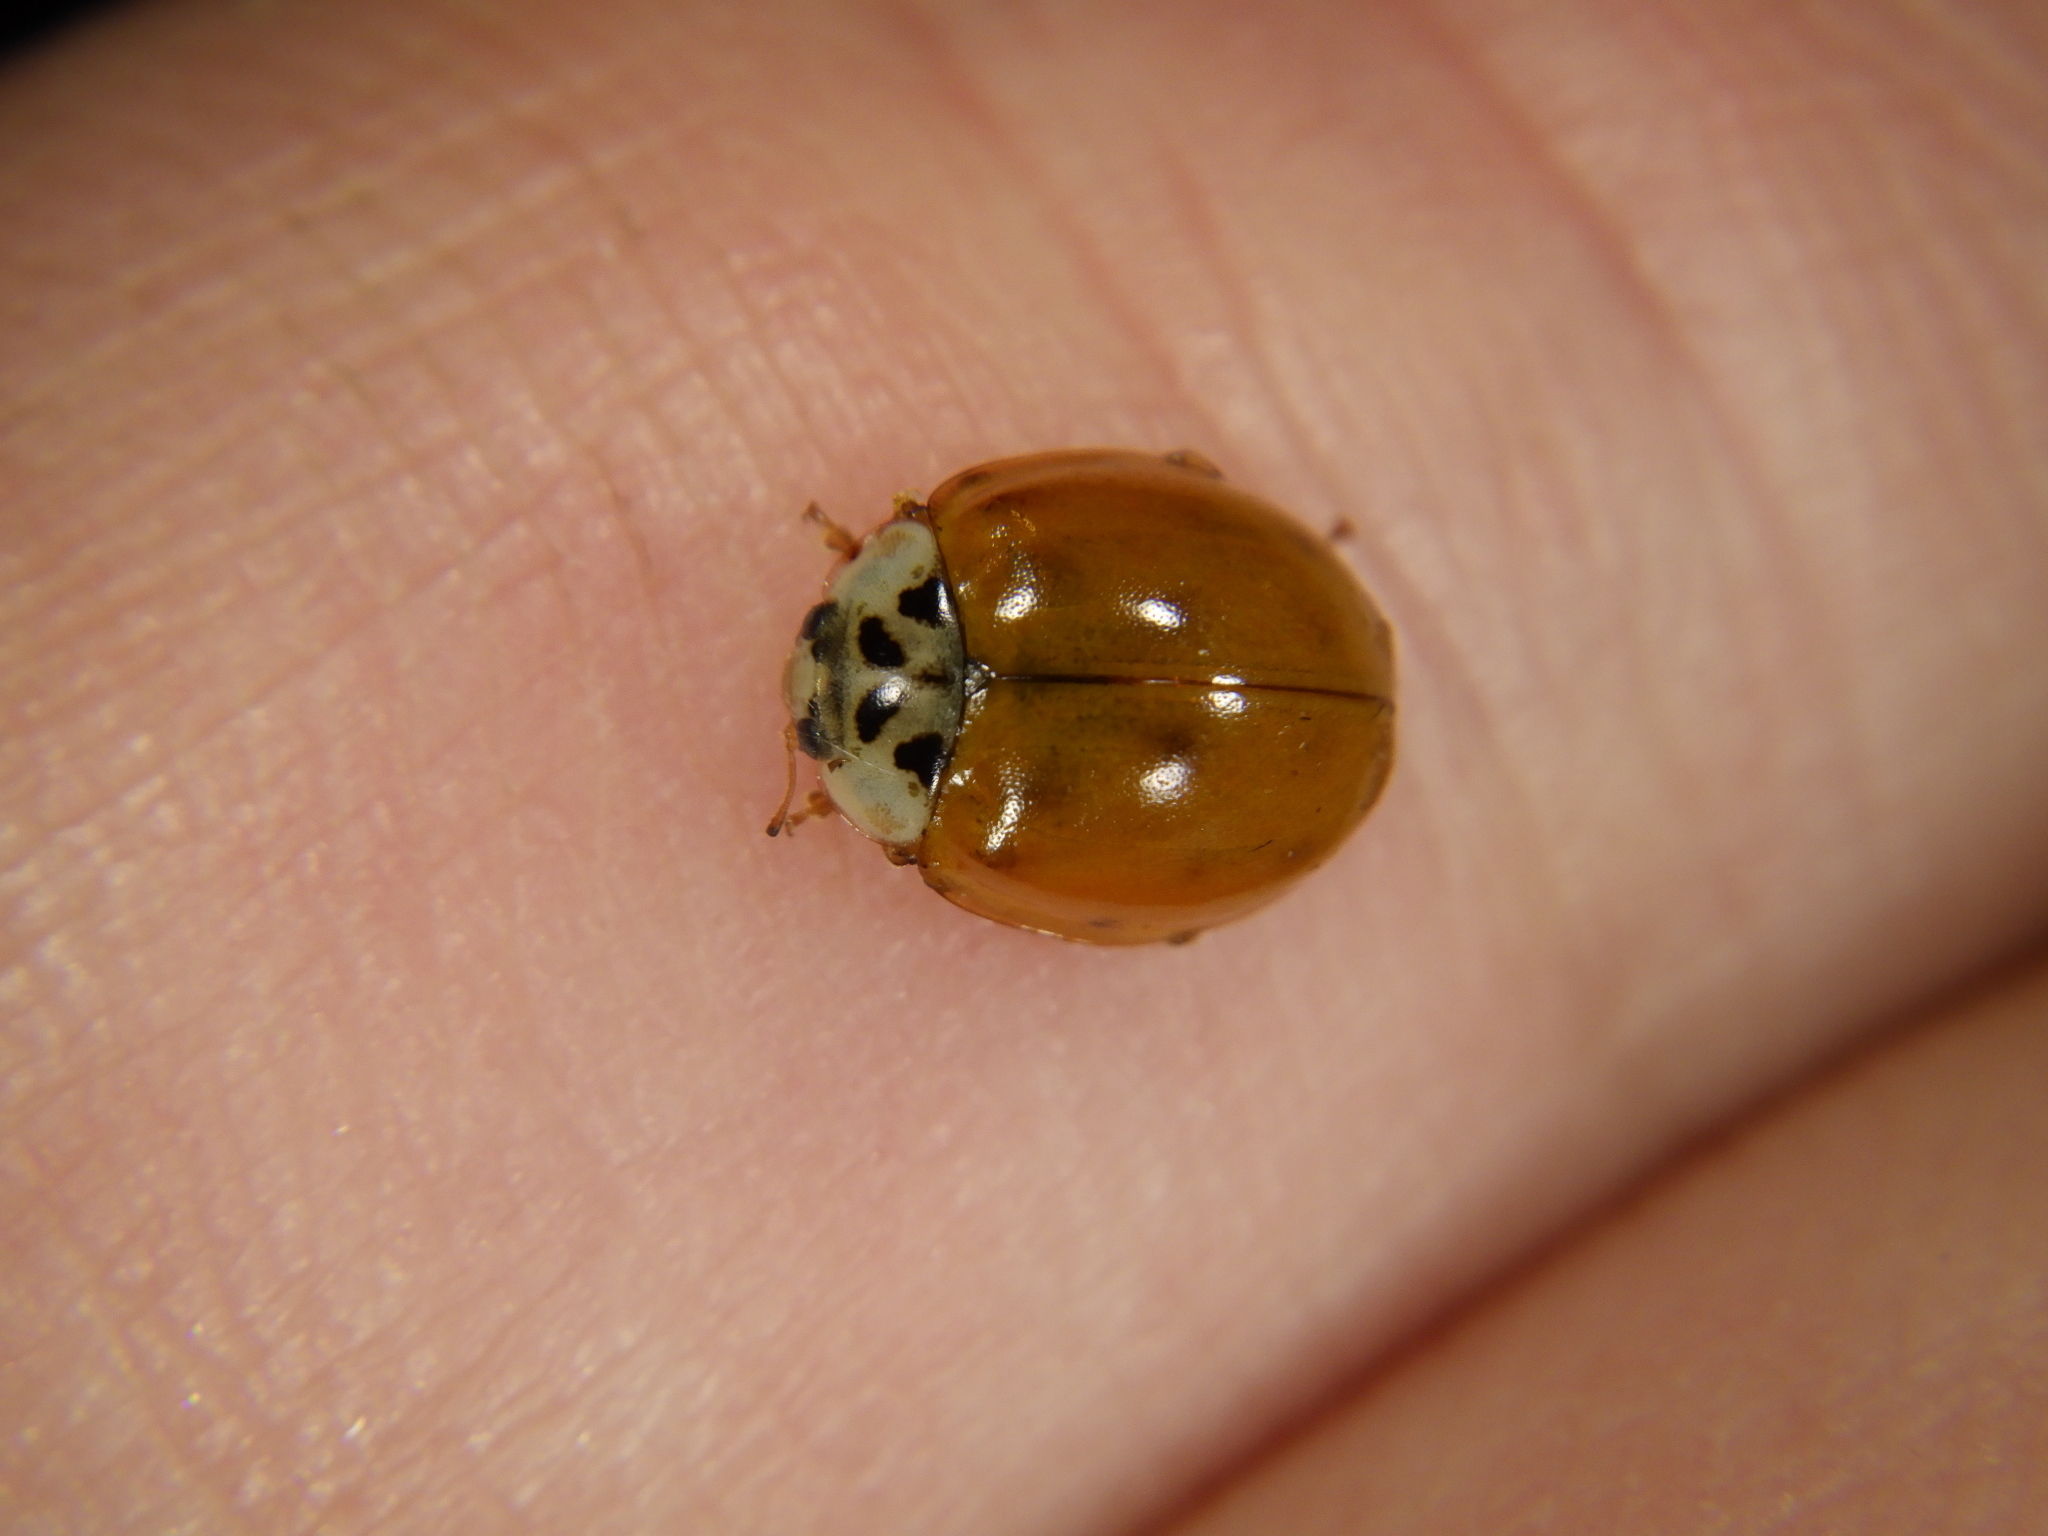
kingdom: Animalia
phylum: Arthropoda
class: Insecta
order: Coleoptera
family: Coccinellidae
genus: Harmonia
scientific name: Harmonia axyridis
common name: Harlequin ladybird
